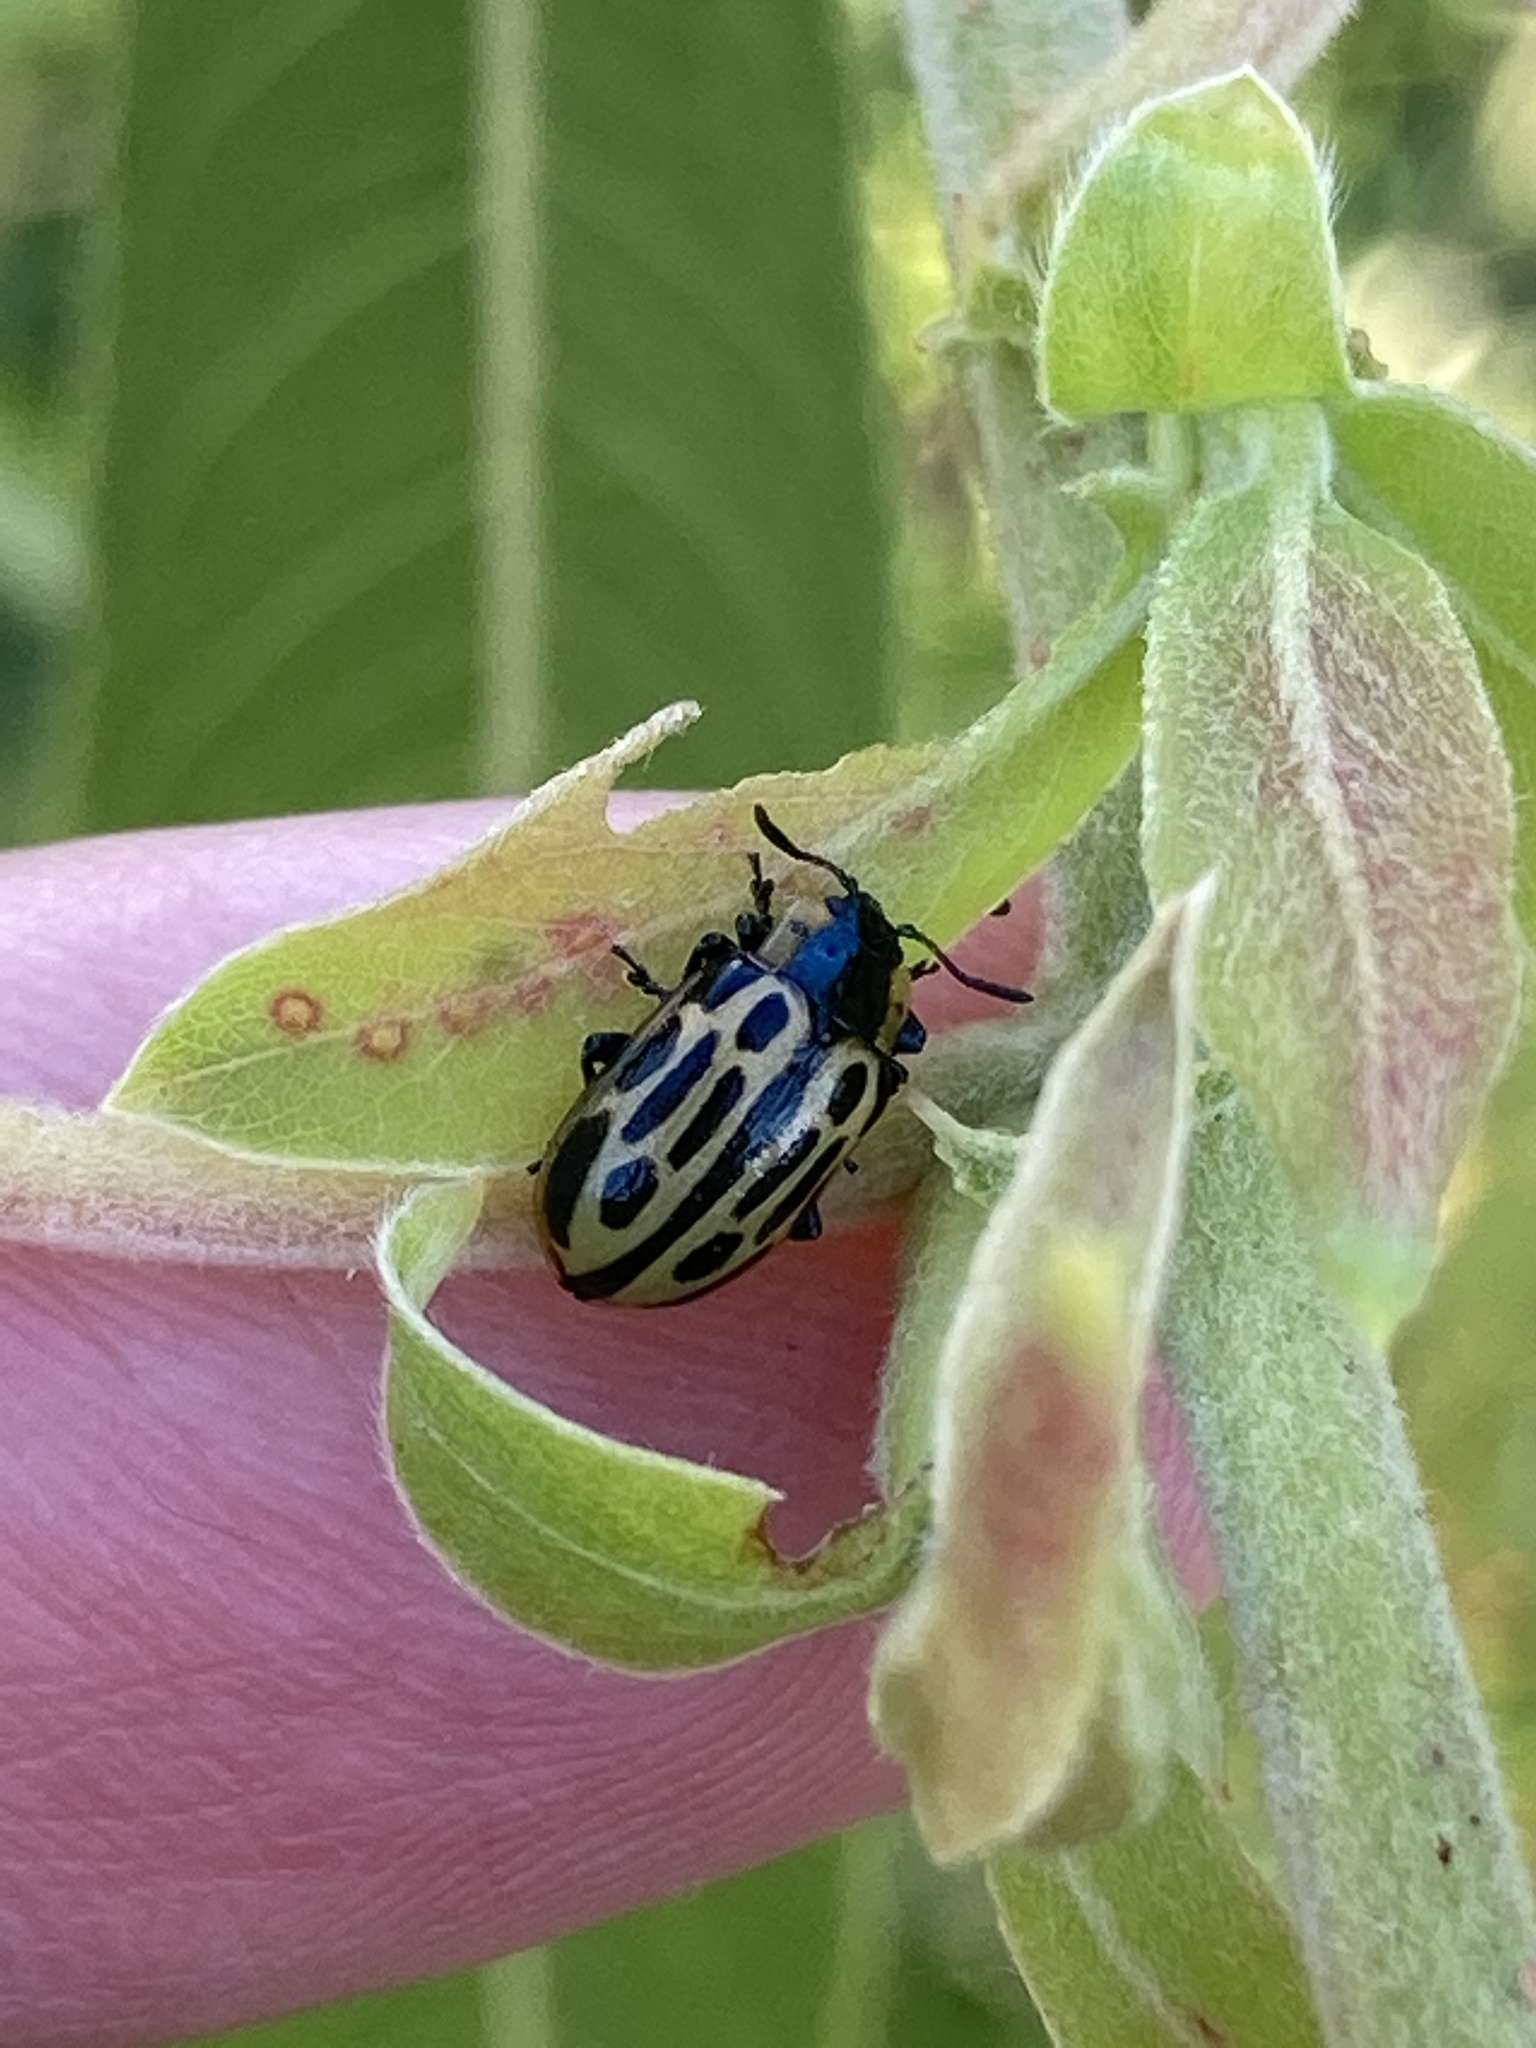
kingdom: Animalia
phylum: Arthropoda
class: Insecta
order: Coleoptera
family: Chrysomelidae
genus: Aethiopocassis
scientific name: Aethiopocassis scripta
